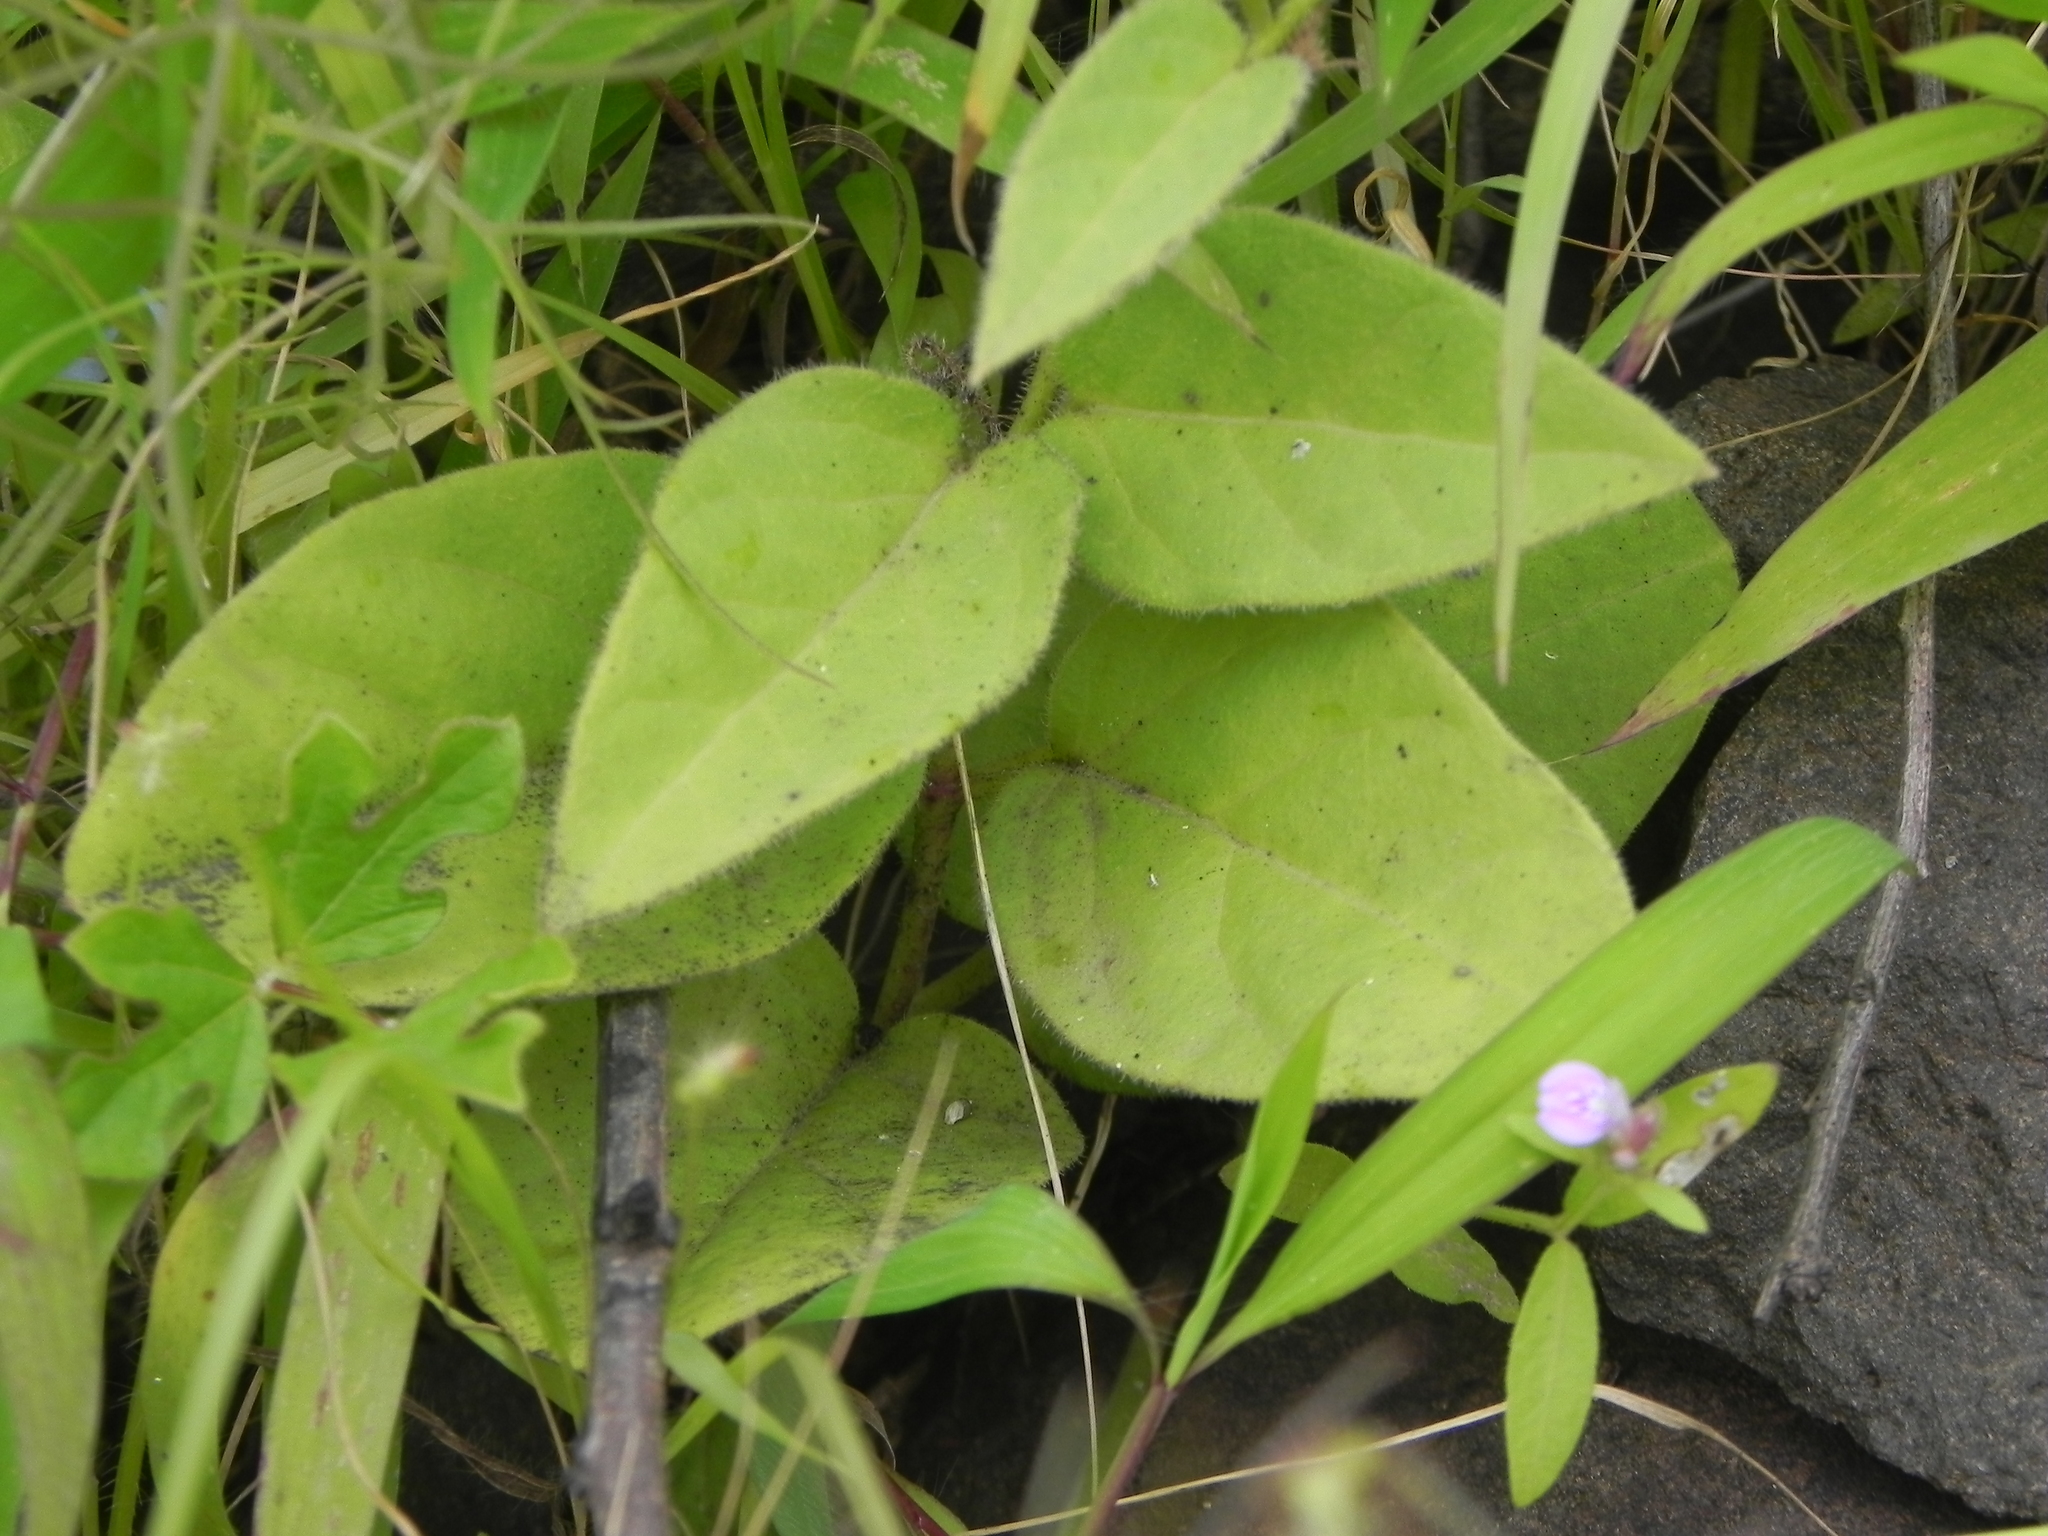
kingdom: Plantae
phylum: Tracheophyta
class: Magnoliopsida
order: Gentianales
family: Apocynaceae
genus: Ceropegia
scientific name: Ceropegia hirsuta
